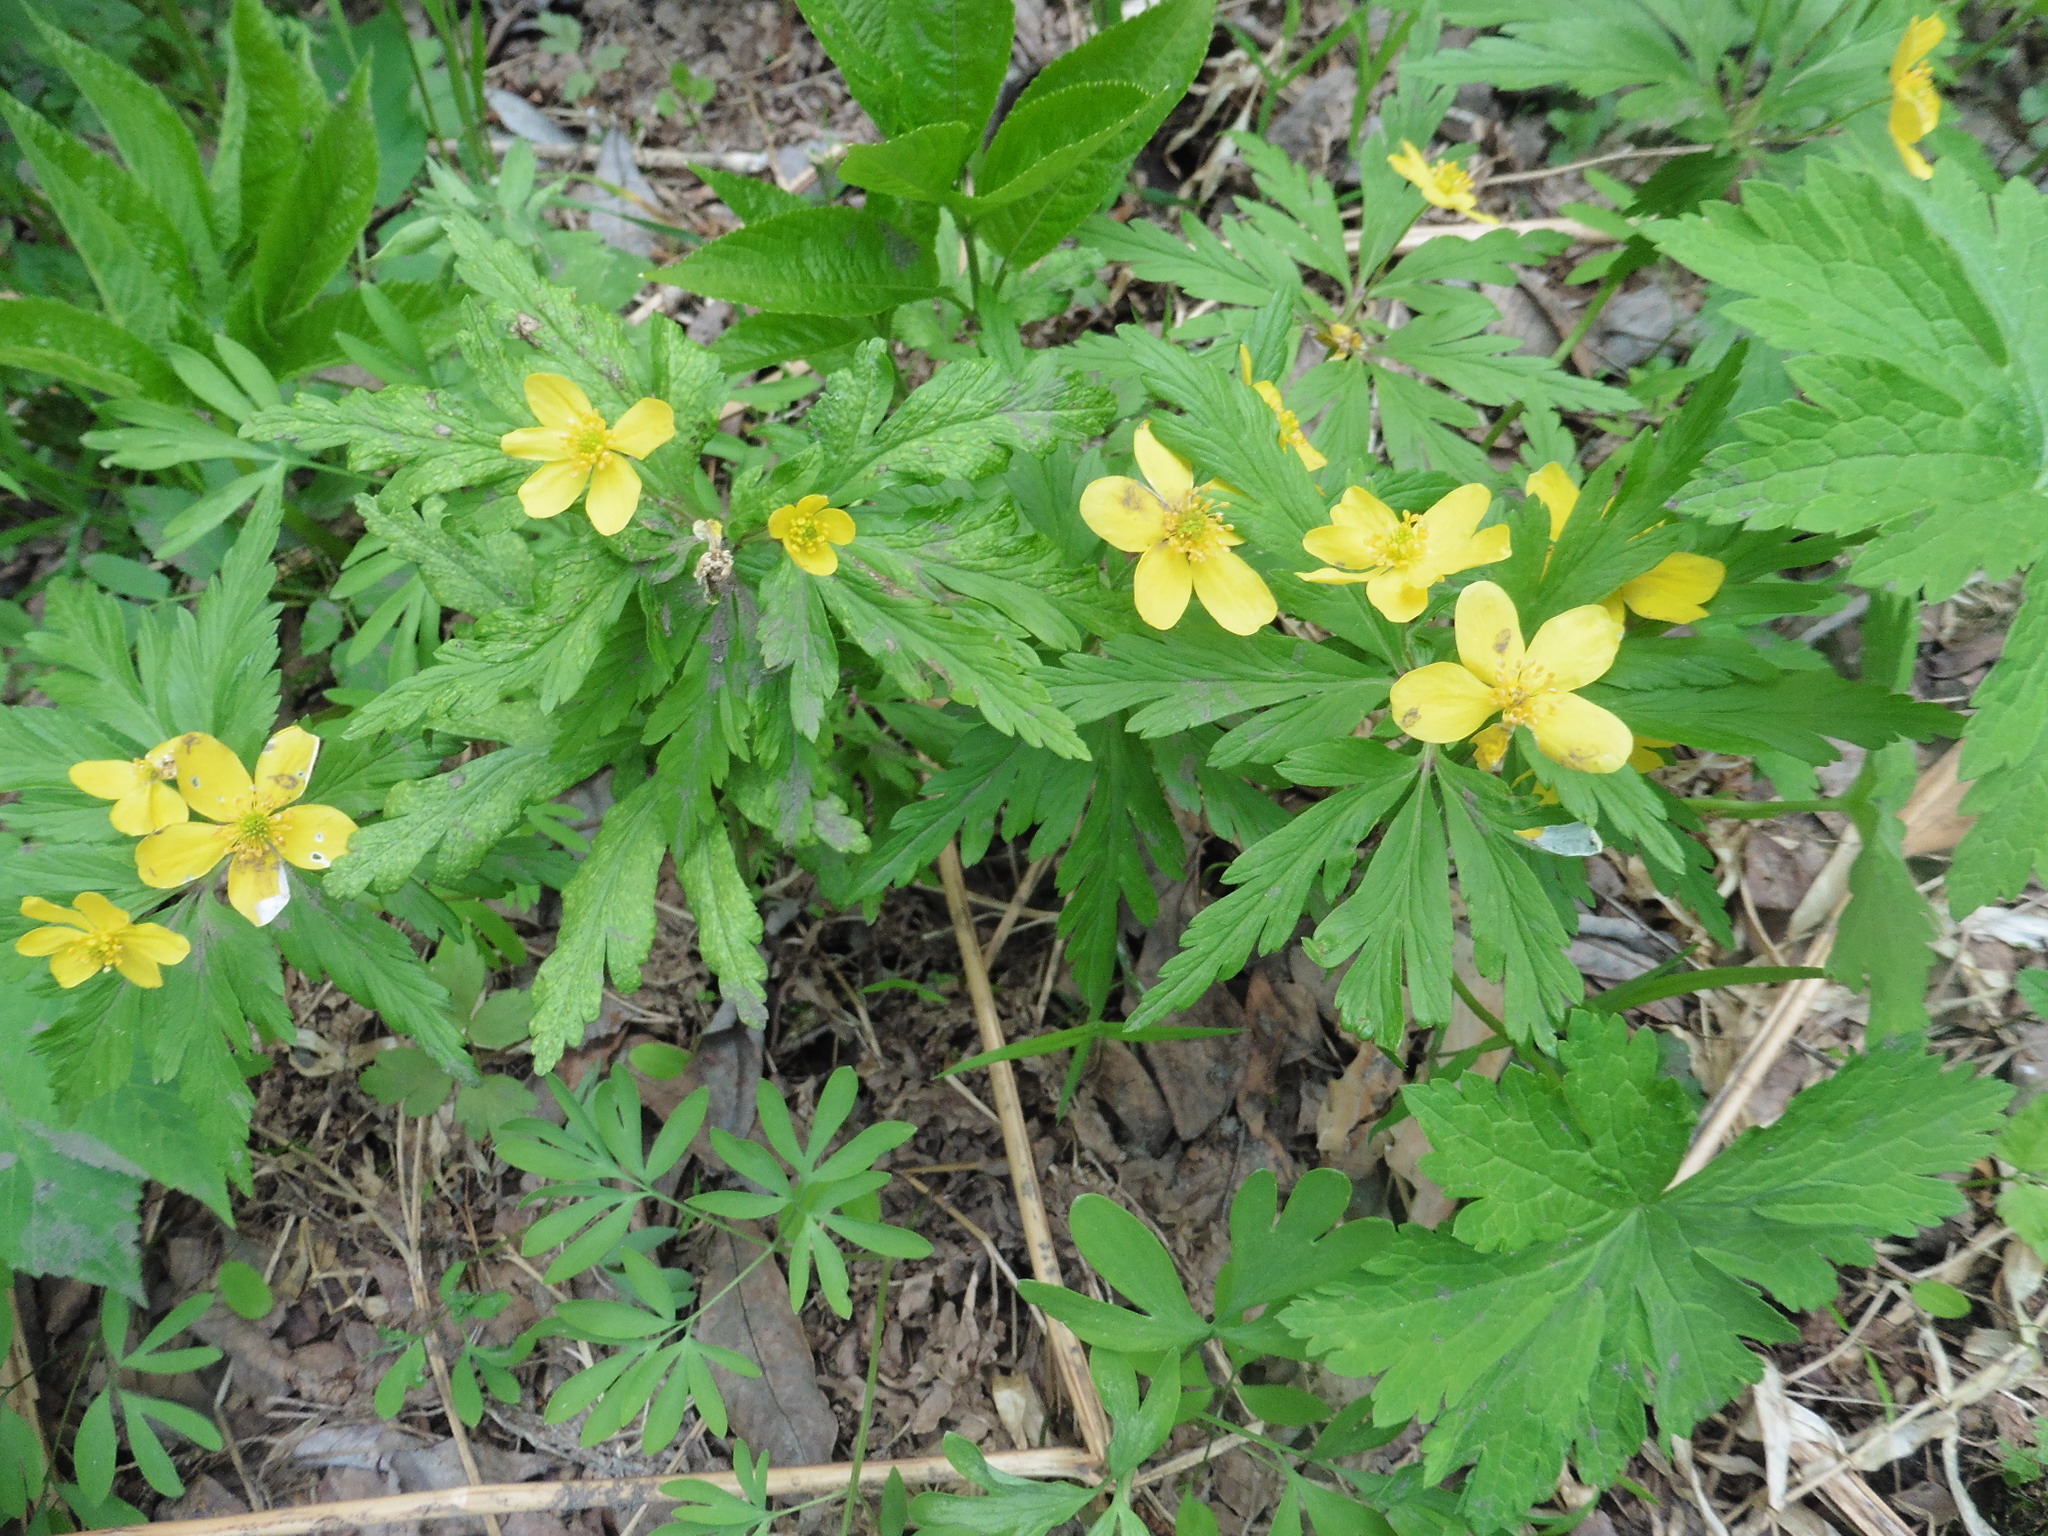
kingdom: Plantae
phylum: Tracheophyta
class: Magnoliopsida
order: Ranunculales
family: Ranunculaceae
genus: Anemone
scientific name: Anemone ranunculoides
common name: Yellow anemone
